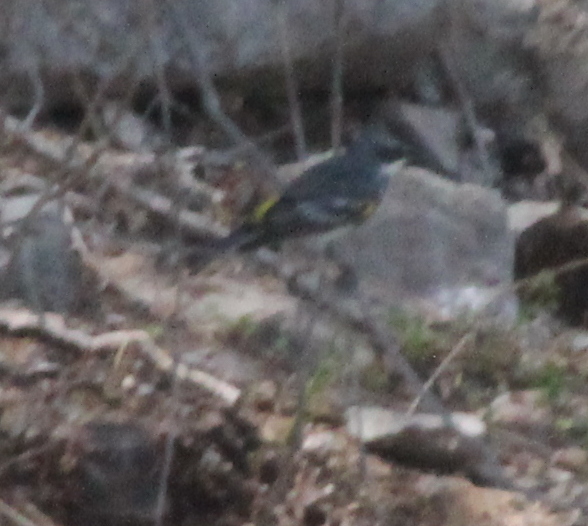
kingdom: Animalia
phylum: Chordata
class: Aves
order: Passeriformes
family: Parulidae
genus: Setophaga
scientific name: Setophaga coronata
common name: Myrtle warbler
